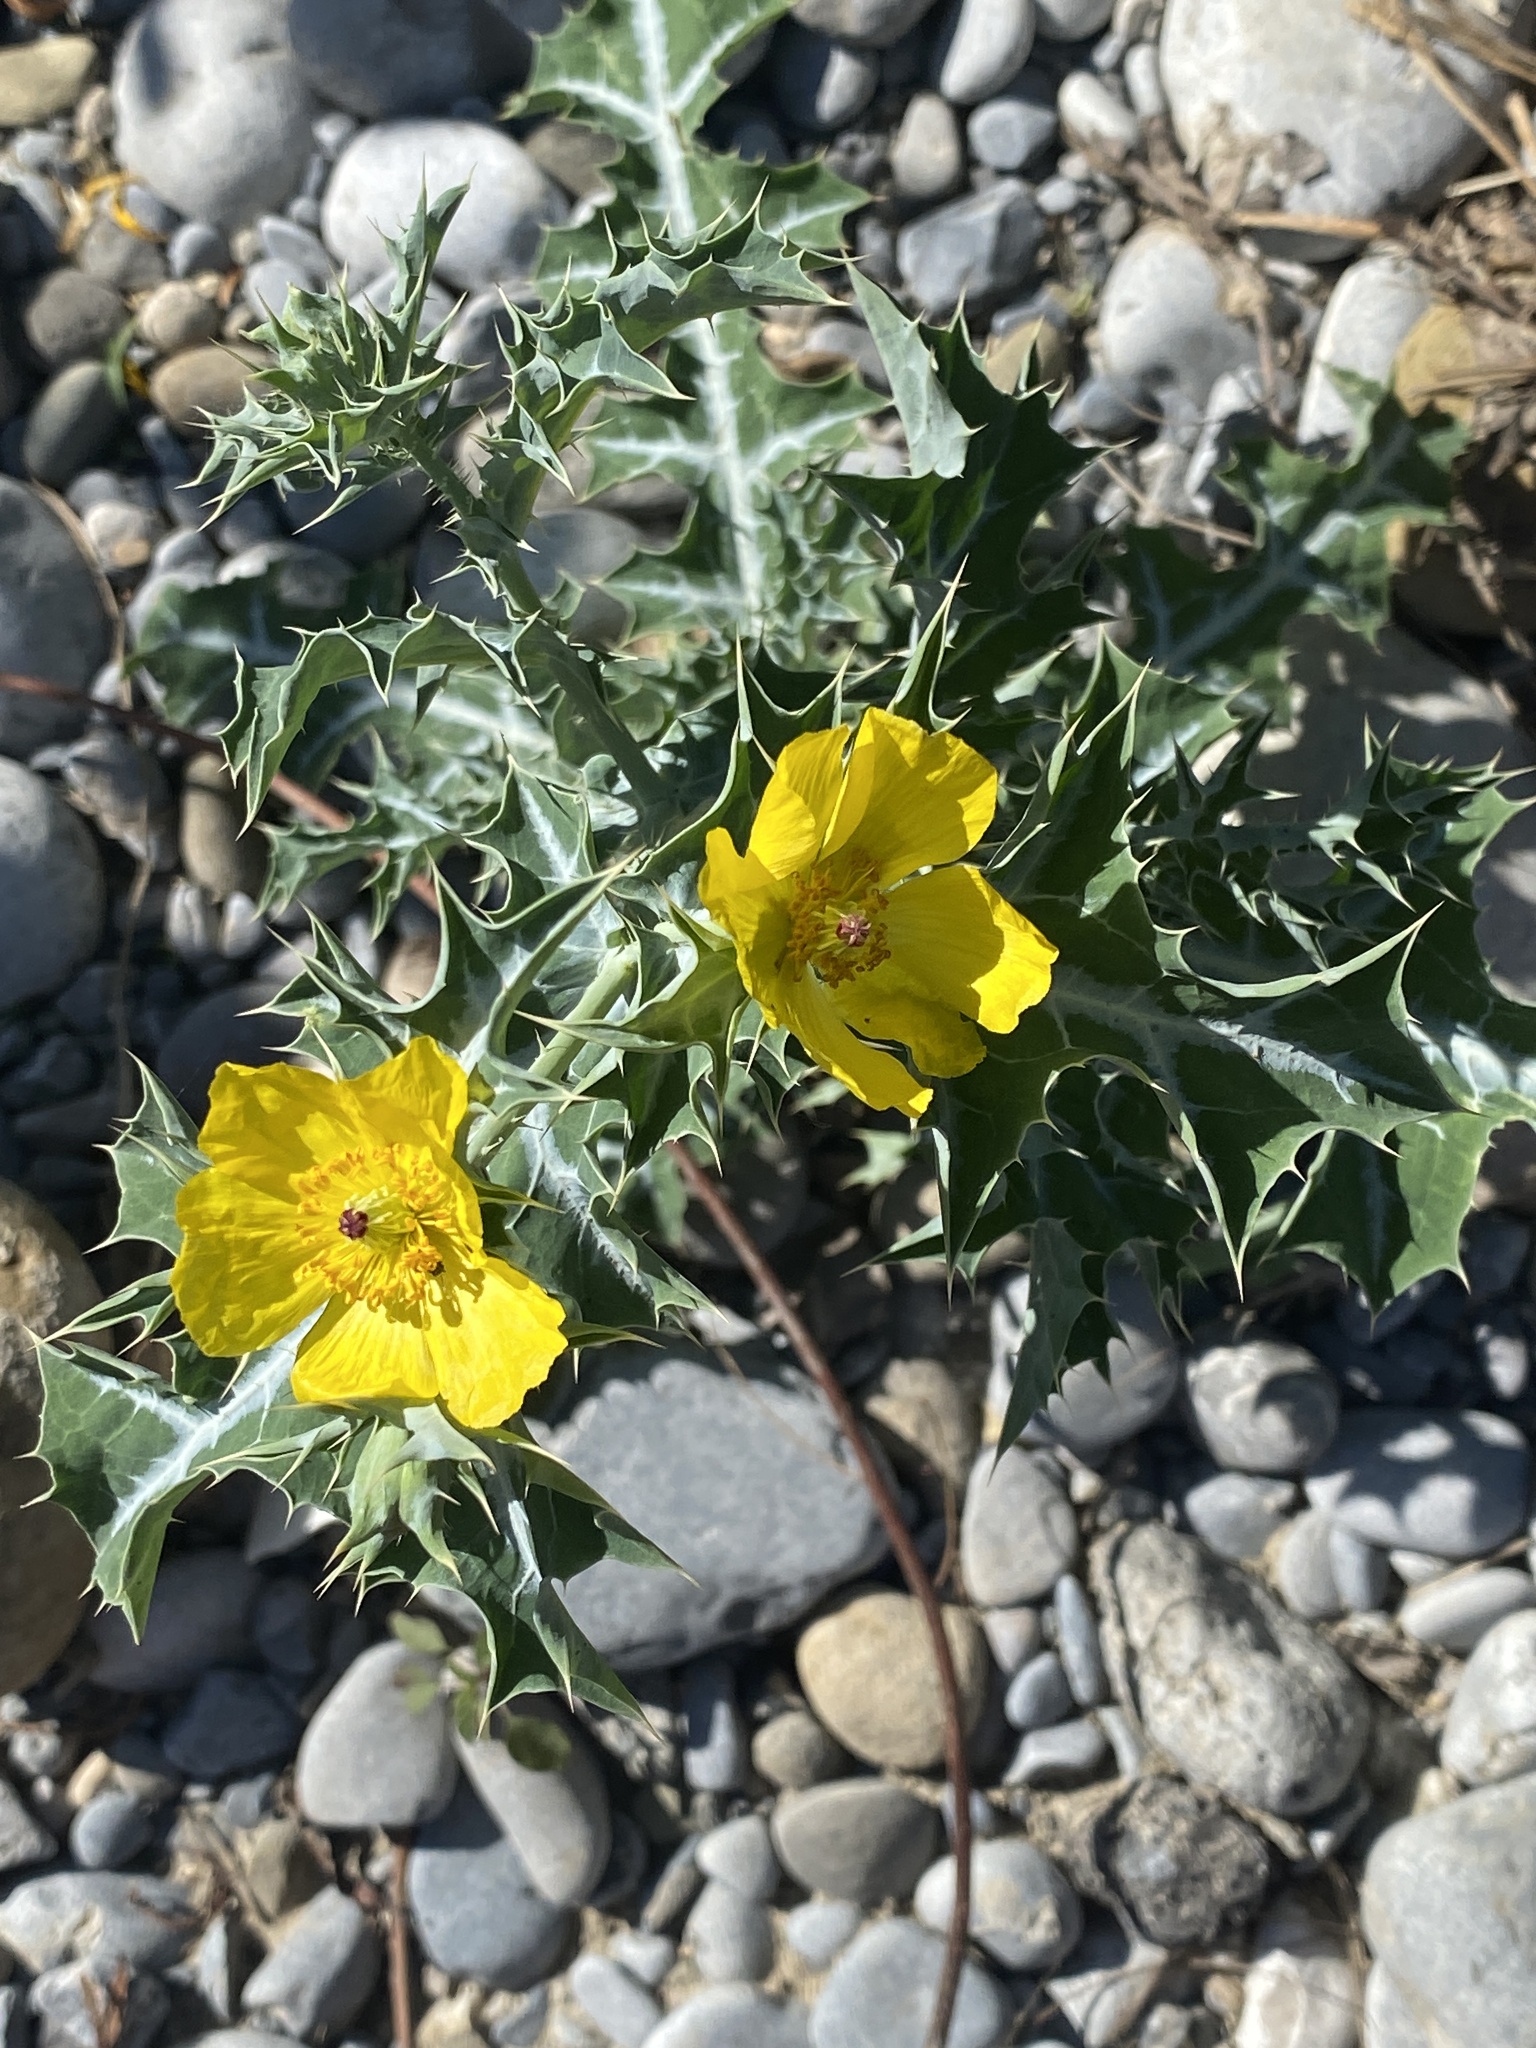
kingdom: Plantae
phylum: Tracheophyta
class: Magnoliopsida
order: Ranunculales
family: Papaveraceae
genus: Argemone
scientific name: Argemone mexicana
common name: Mexican poppy
